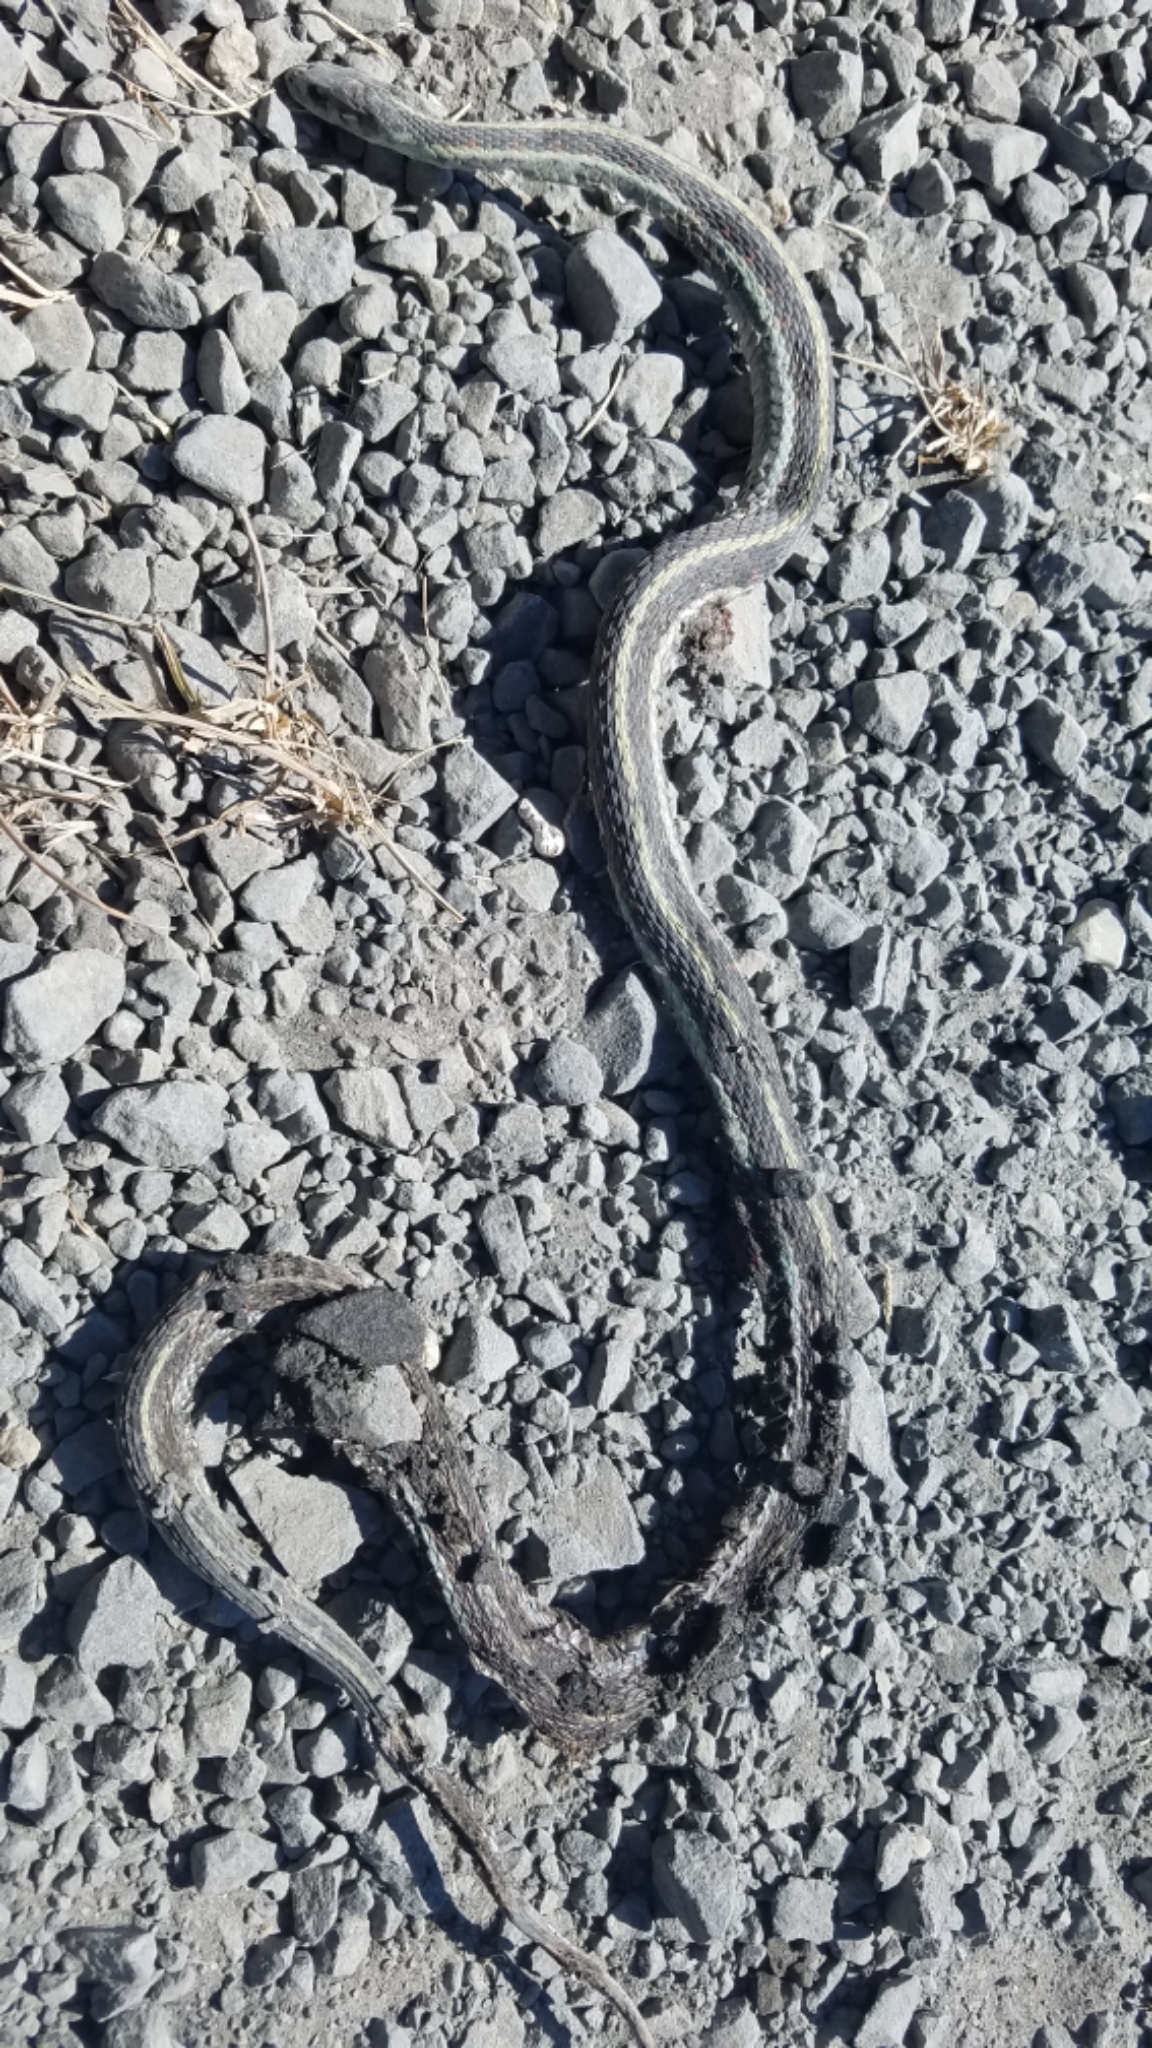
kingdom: Animalia
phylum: Chordata
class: Squamata
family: Colubridae
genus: Thamnophis
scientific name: Thamnophis sirtalis
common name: Common garter snake
